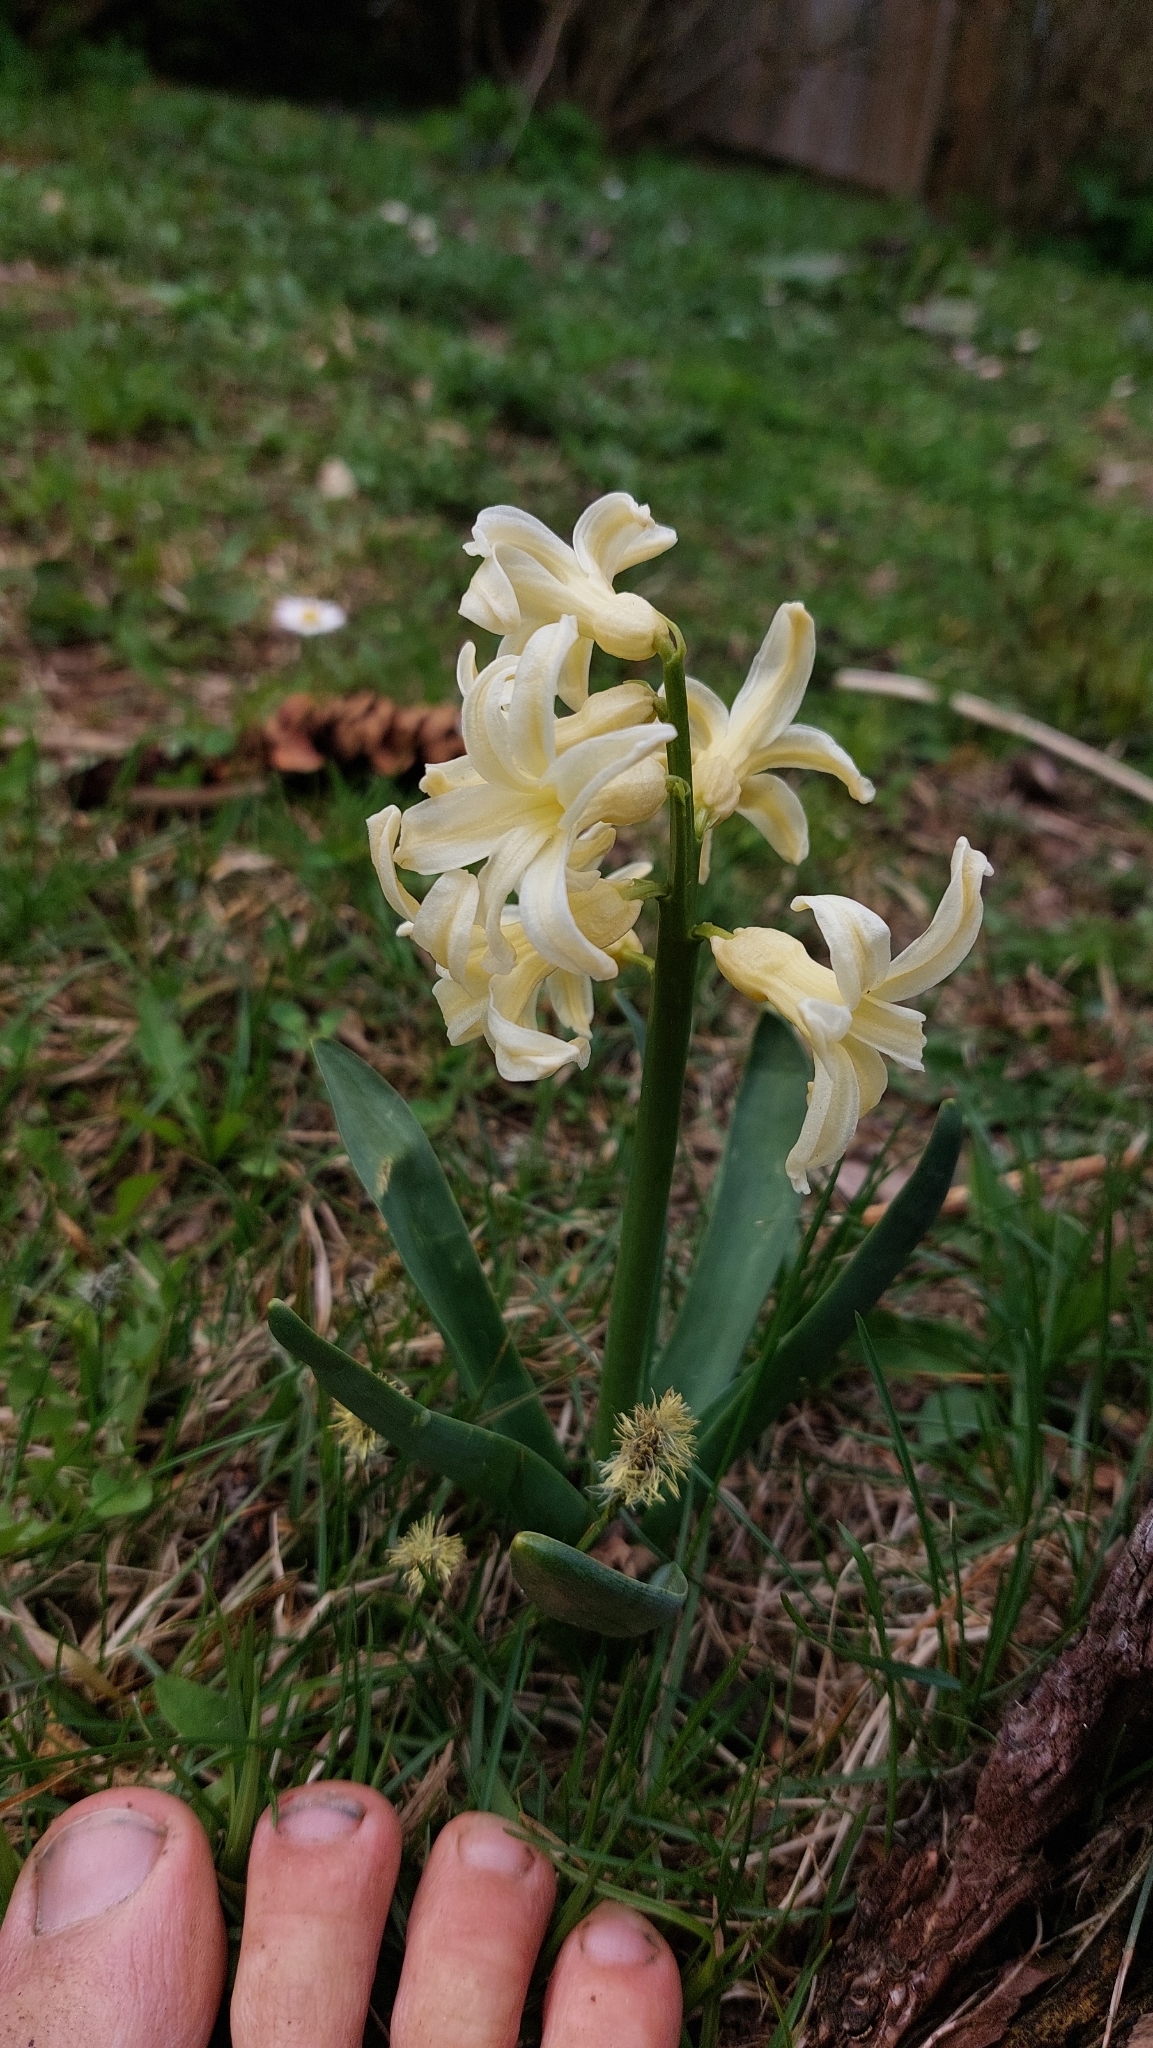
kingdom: Plantae
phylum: Tracheophyta
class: Liliopsida
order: Asparagales
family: Asparagaceae
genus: Hyacinthus
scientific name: Hyacinthus orientalis
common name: Hyacinth
